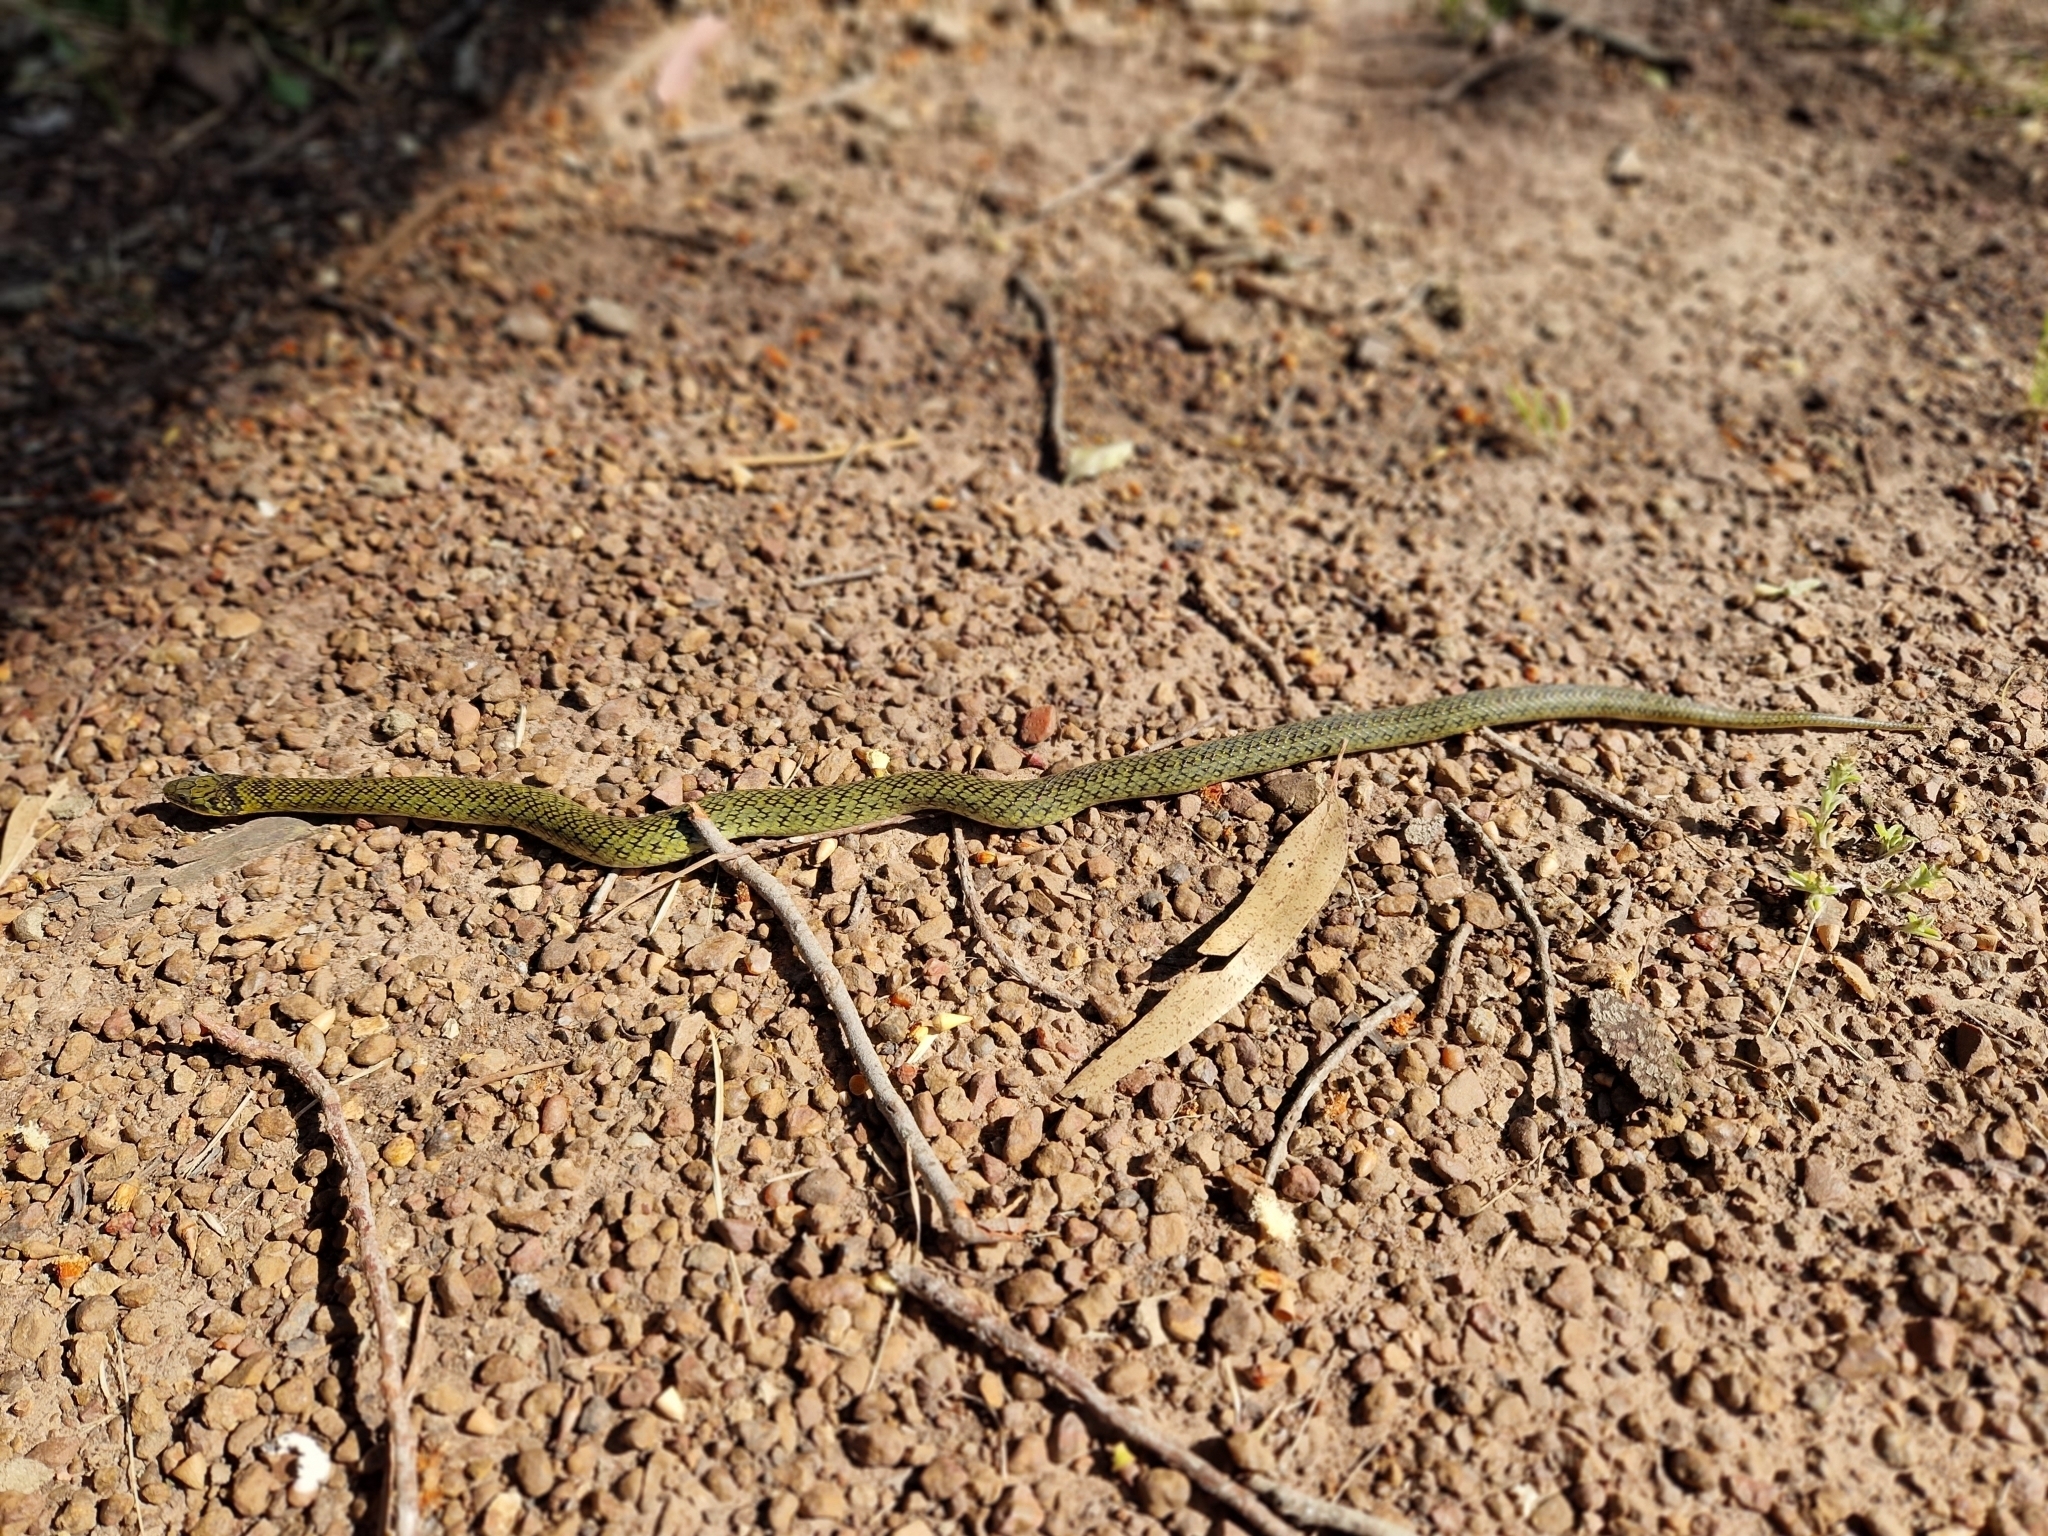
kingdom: Animalia
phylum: Chordata
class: Squamata
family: Colubridae
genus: Erythrolamprus
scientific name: Erythrolamprus poecilogyrus
